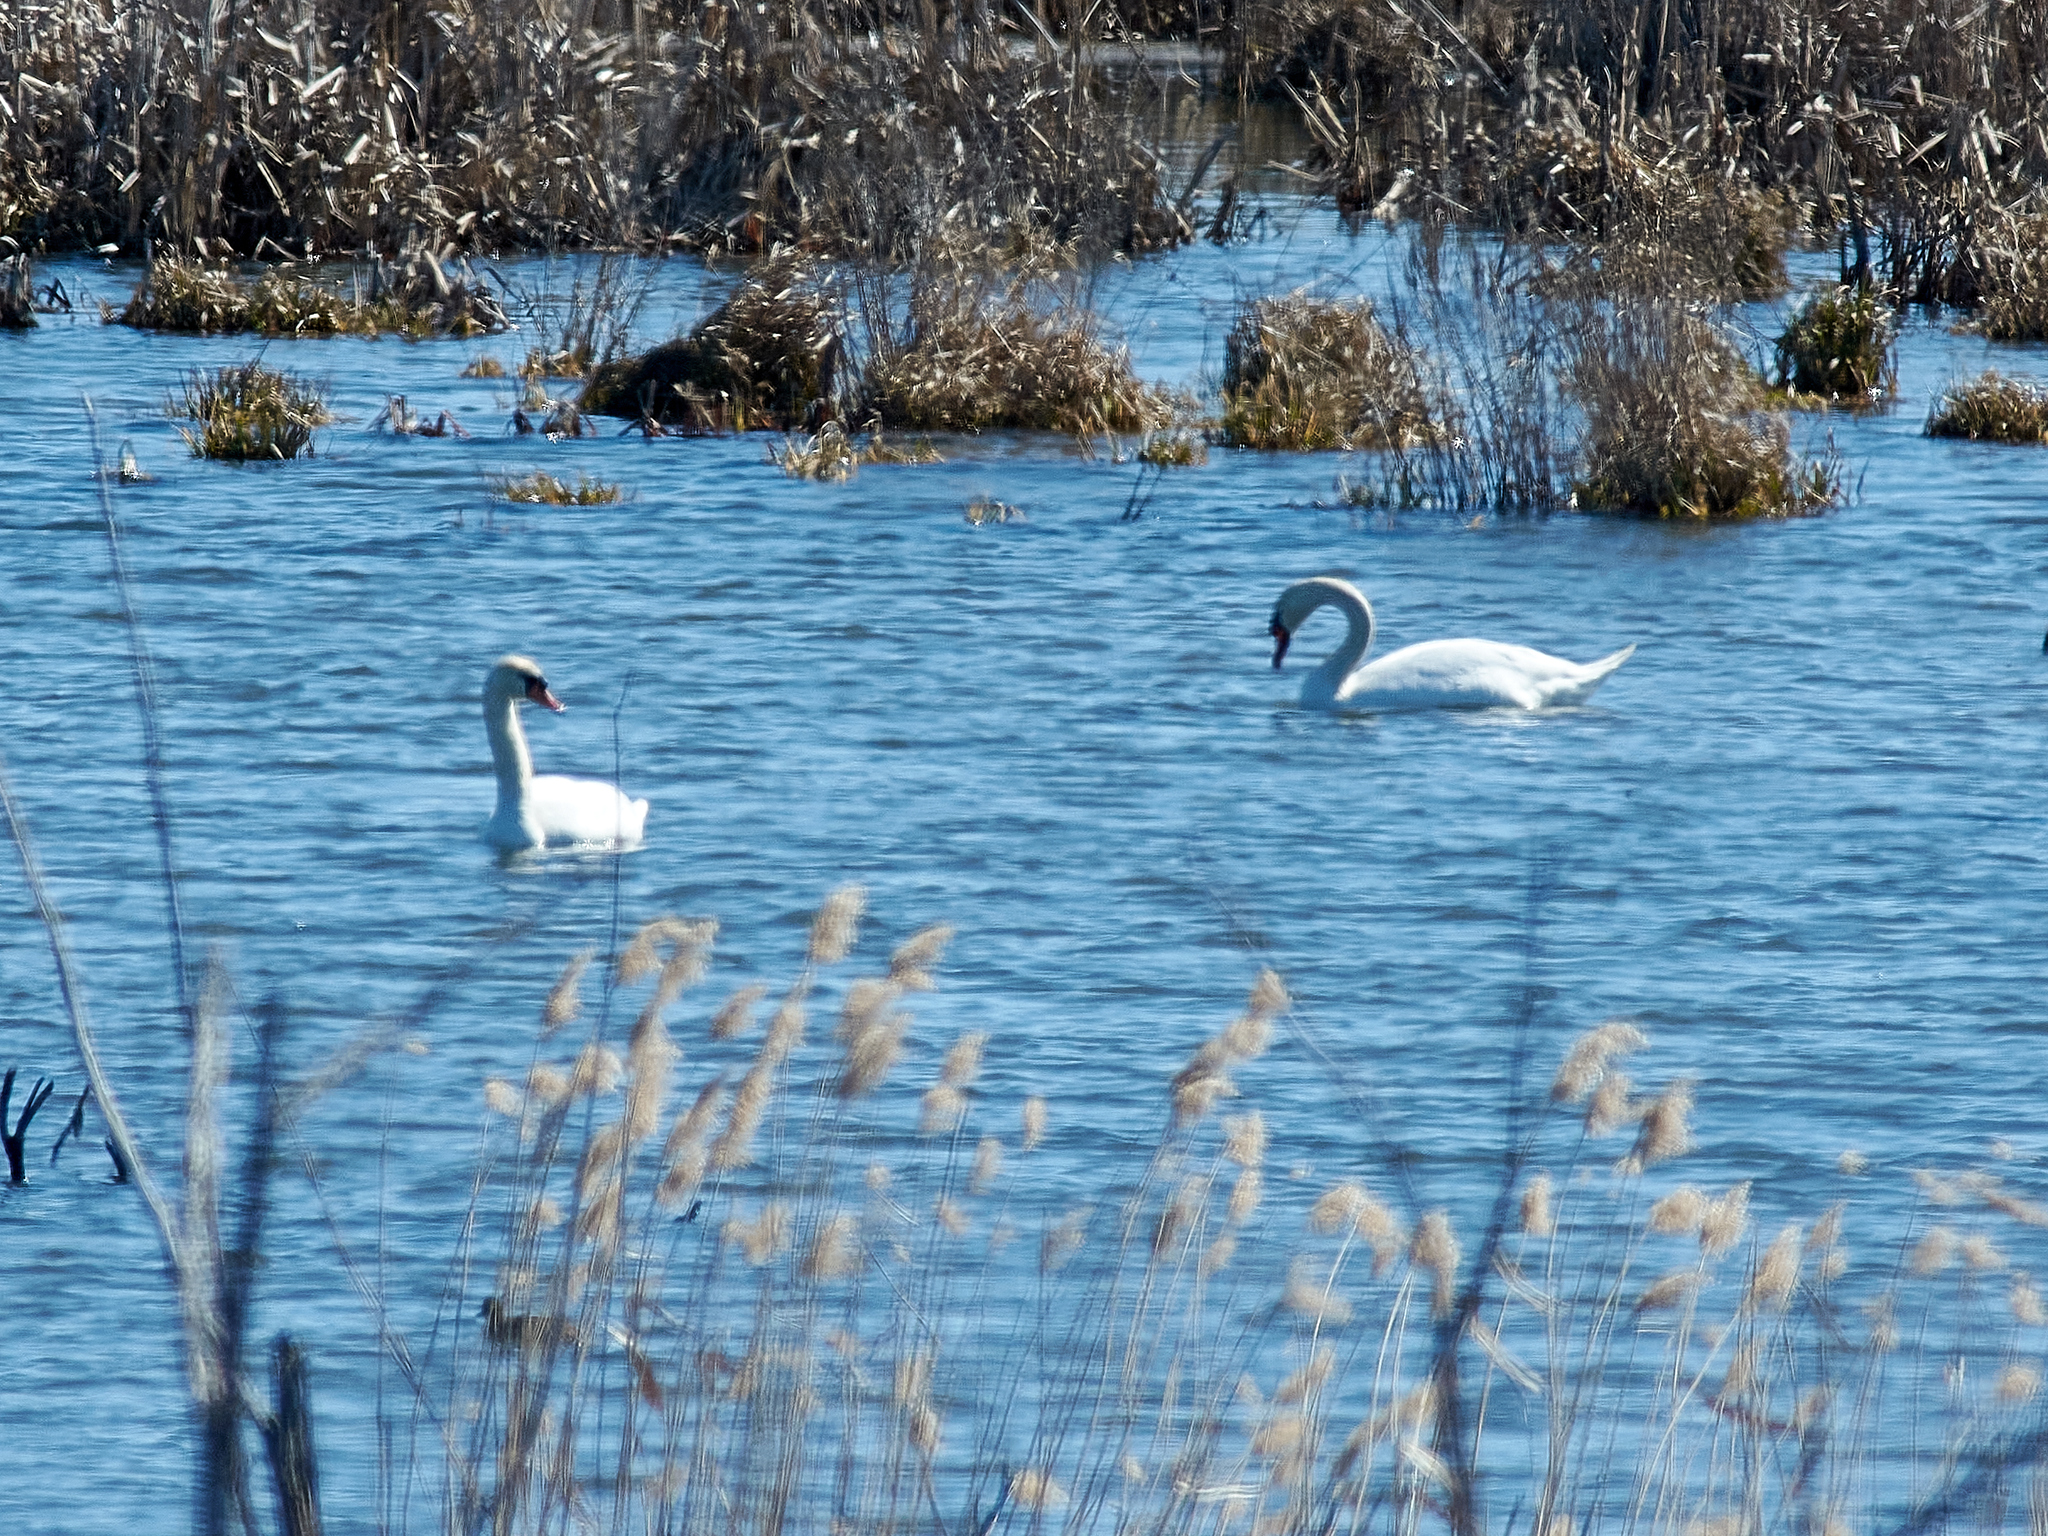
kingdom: Animalia
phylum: Chordata
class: Aves
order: Anseriformes
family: Anatidae
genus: Cygnus
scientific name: Cygnus olor
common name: Mute swan
